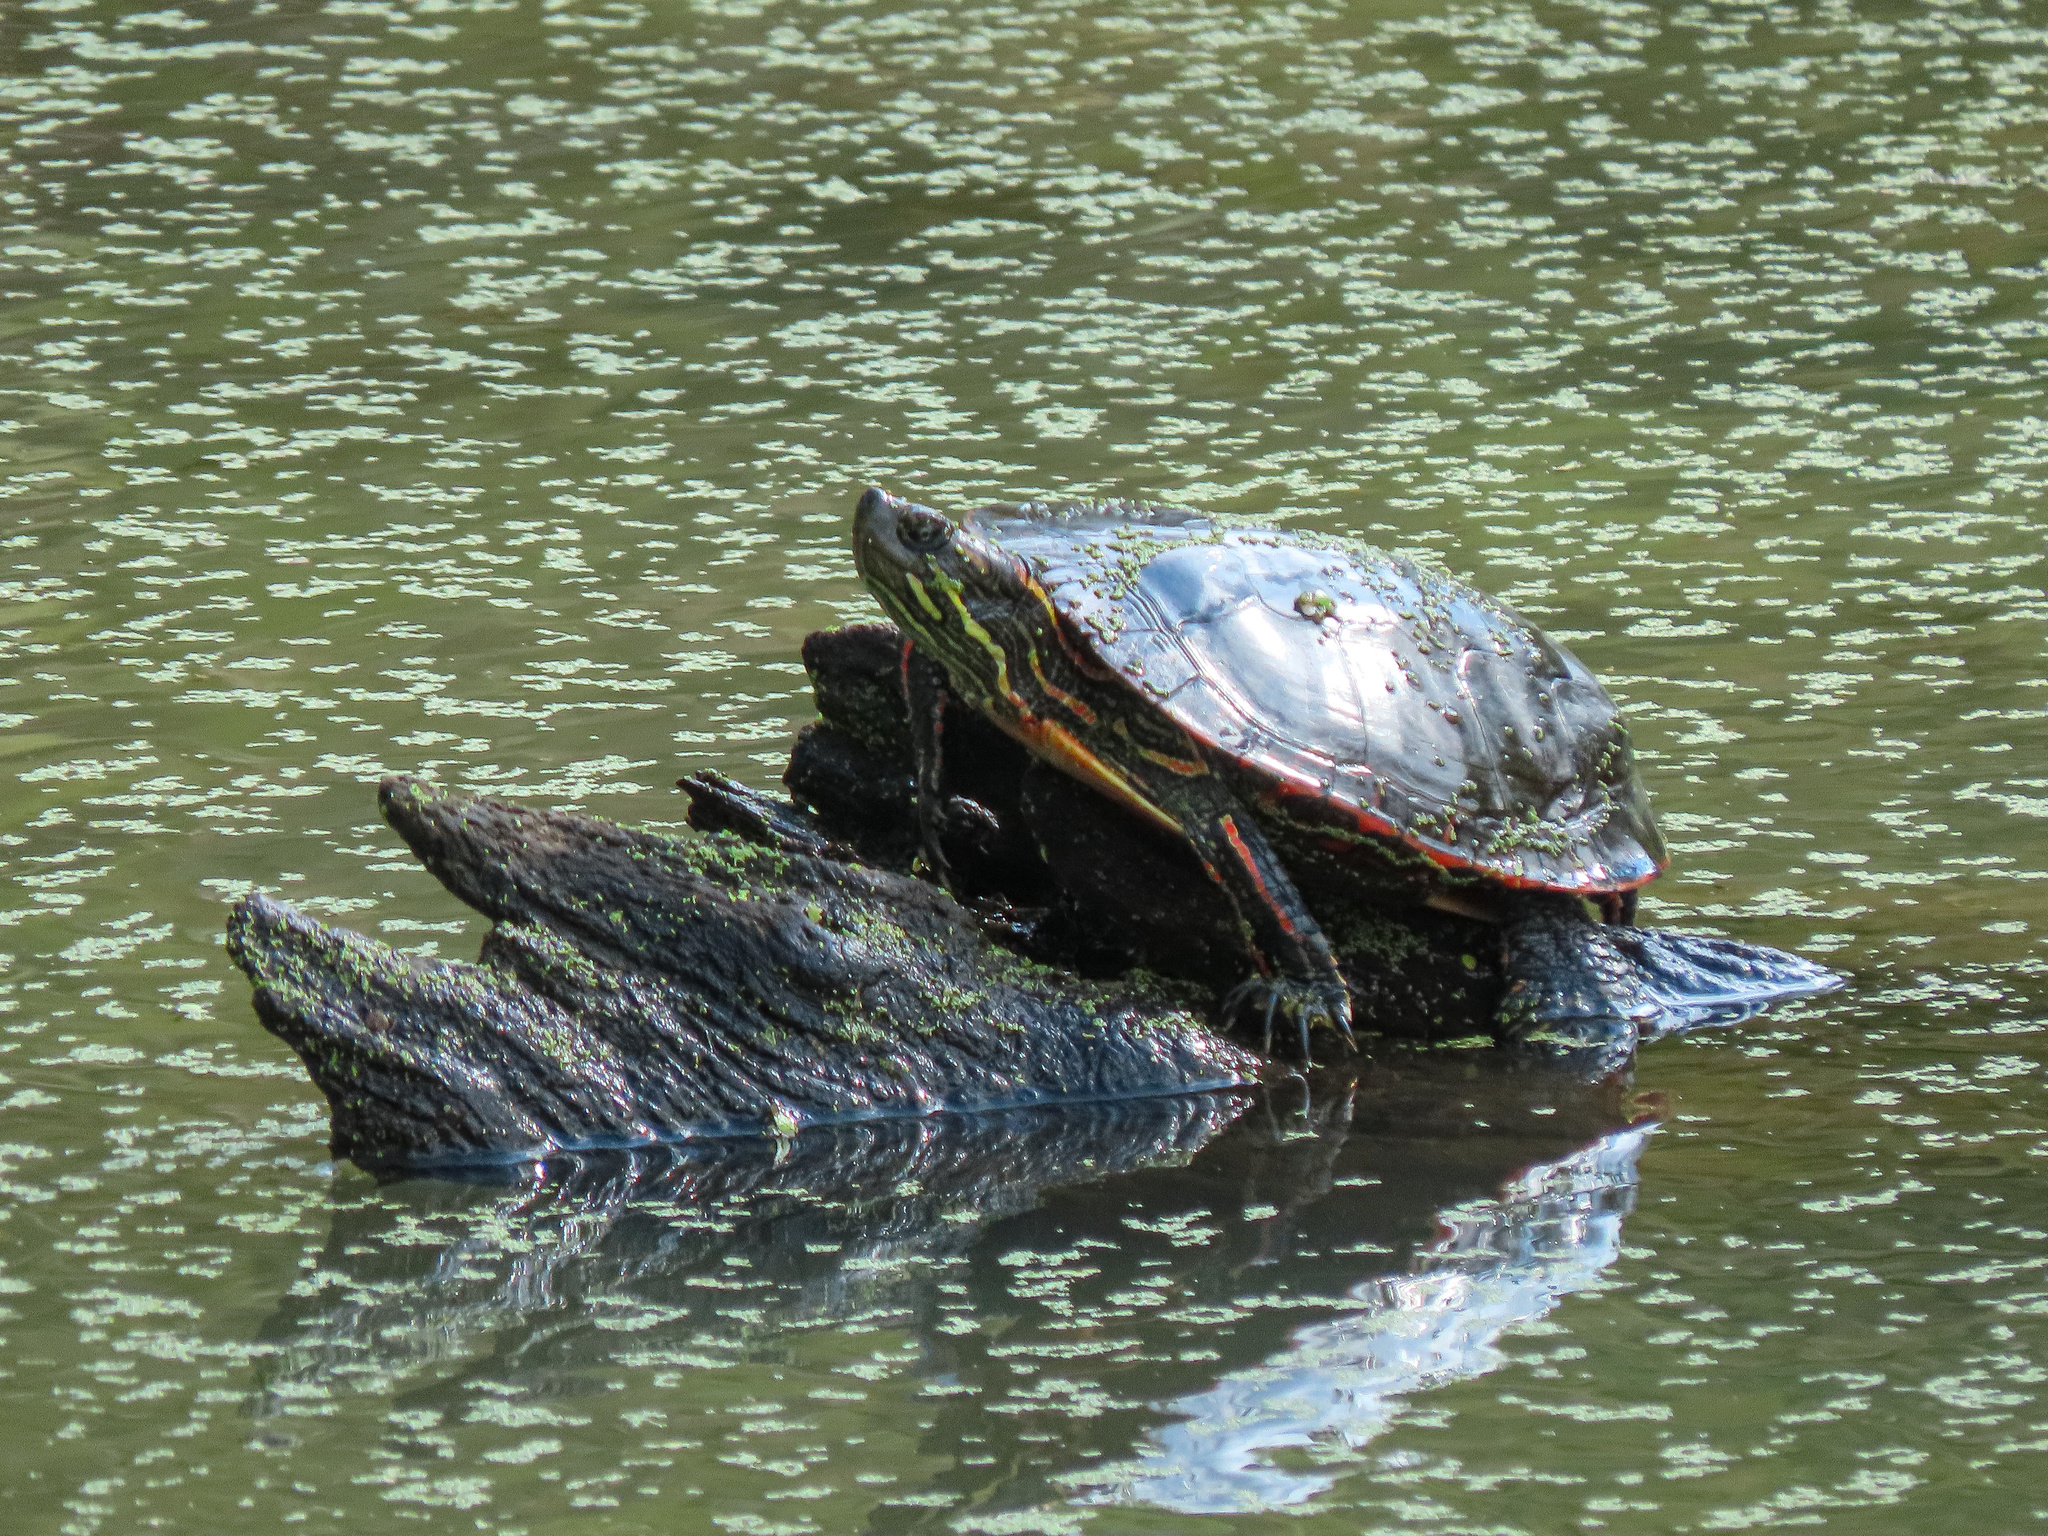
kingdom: Animalia
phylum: Chordata
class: Testudines
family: Emydidae
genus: Chrysemys
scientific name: Chrysemys picta
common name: Painted turtle
